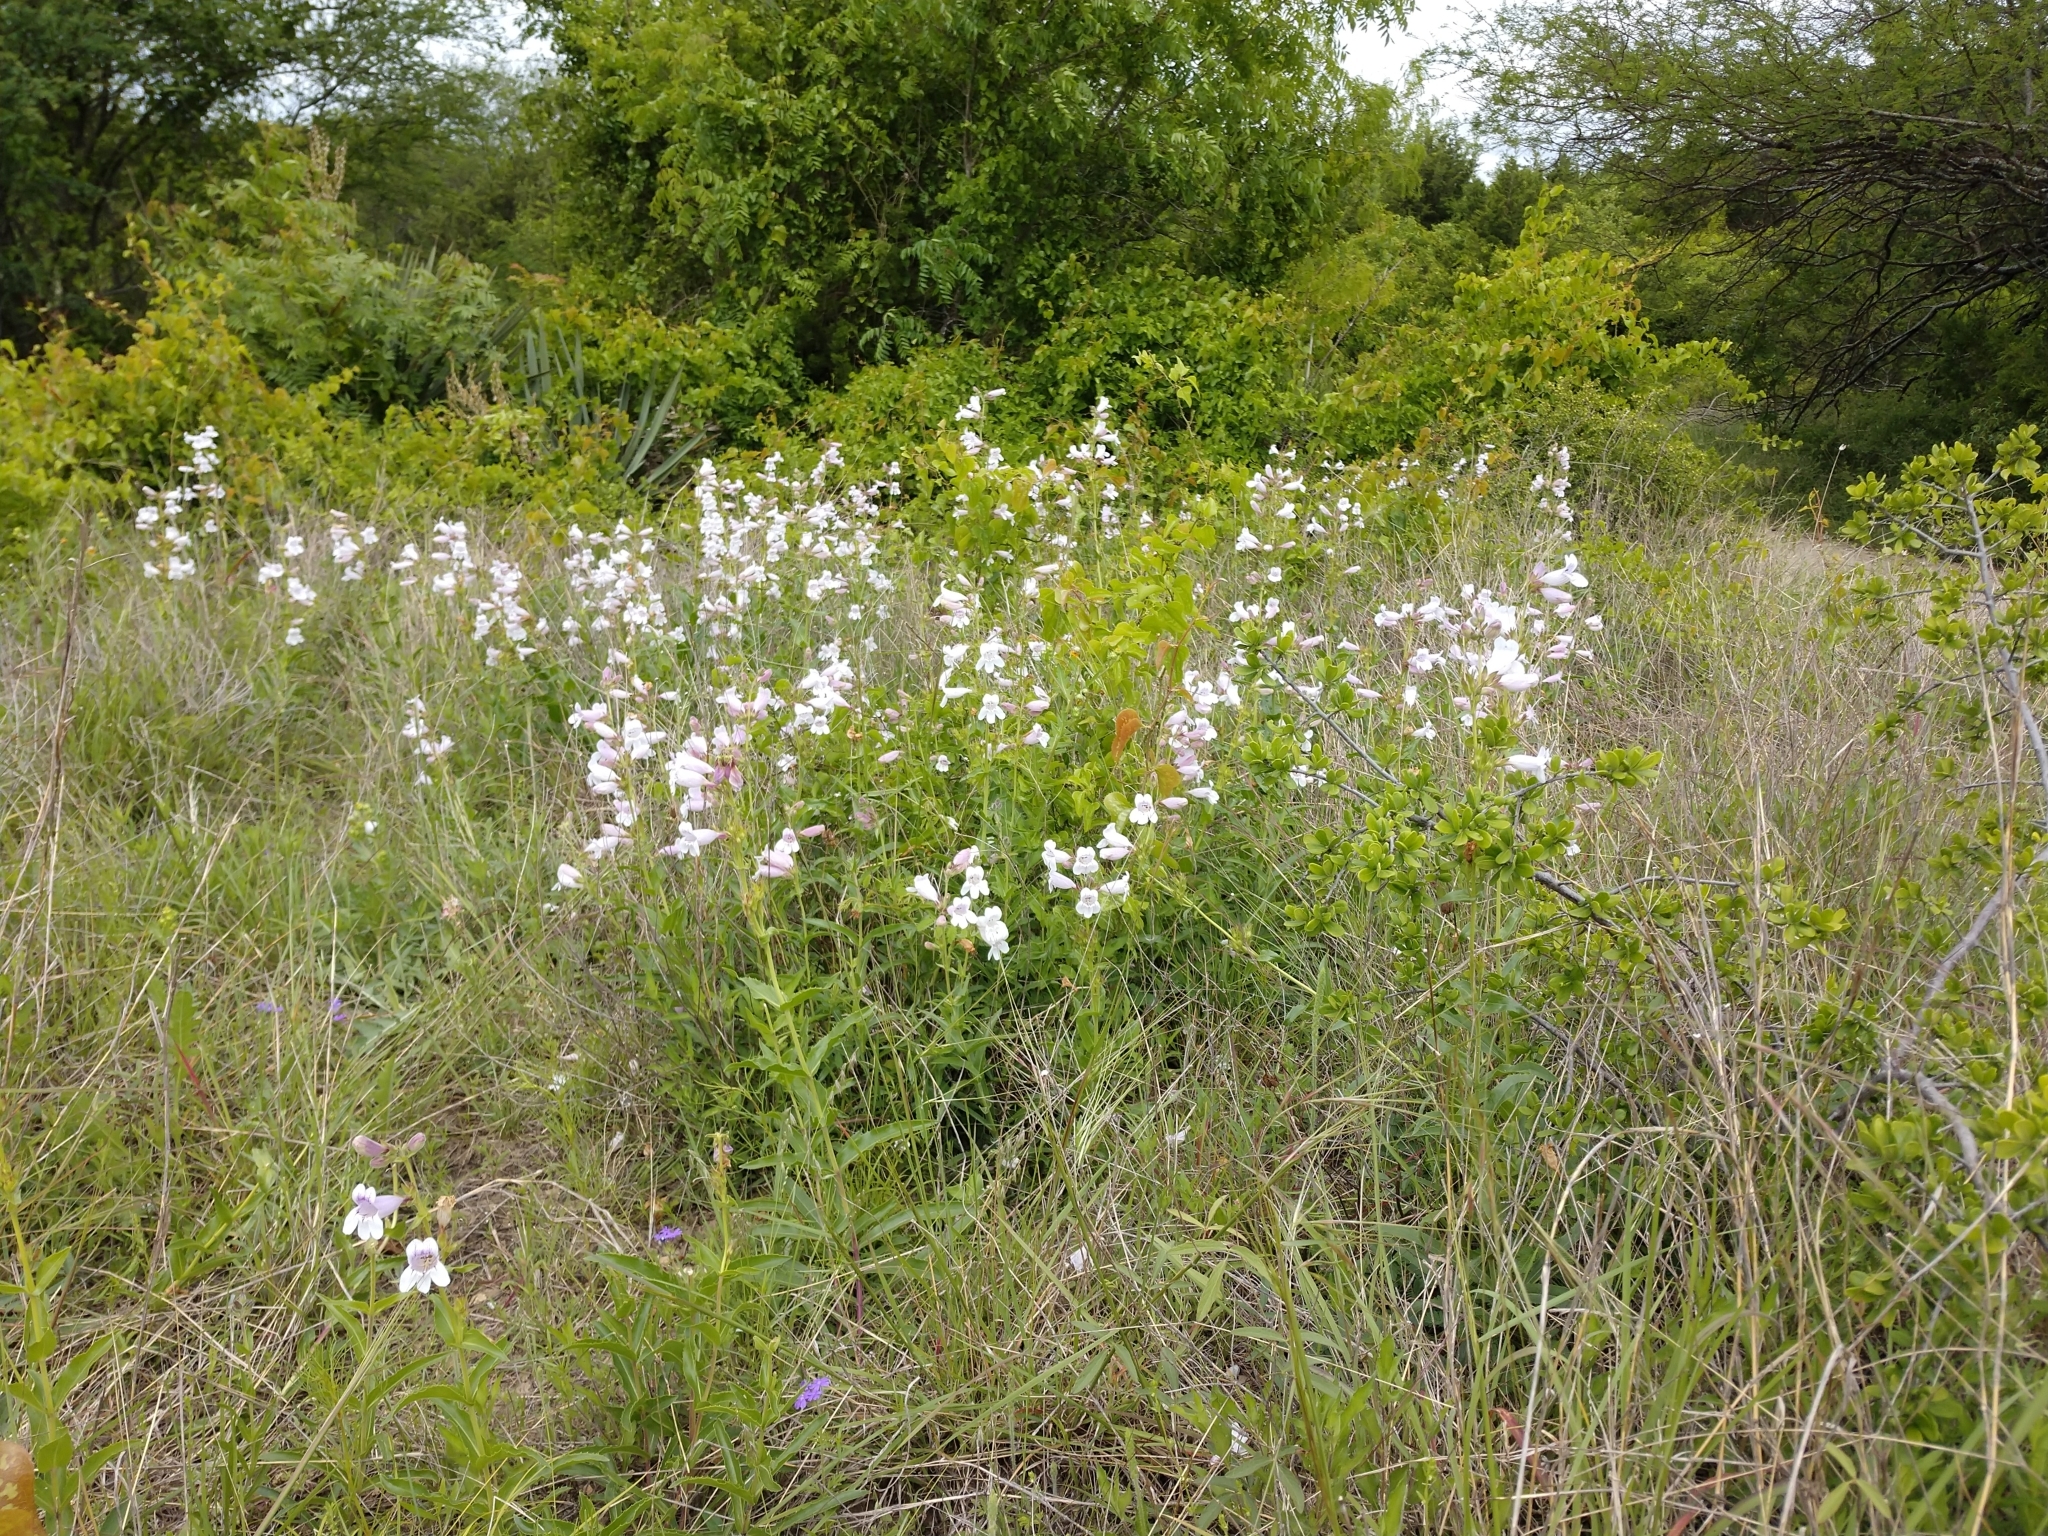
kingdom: Plantae
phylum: Tracheophyta
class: Magnoliopsida
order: Lamiales
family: Plantaginaceae
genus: Penstemon
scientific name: Penstemon cobaea
